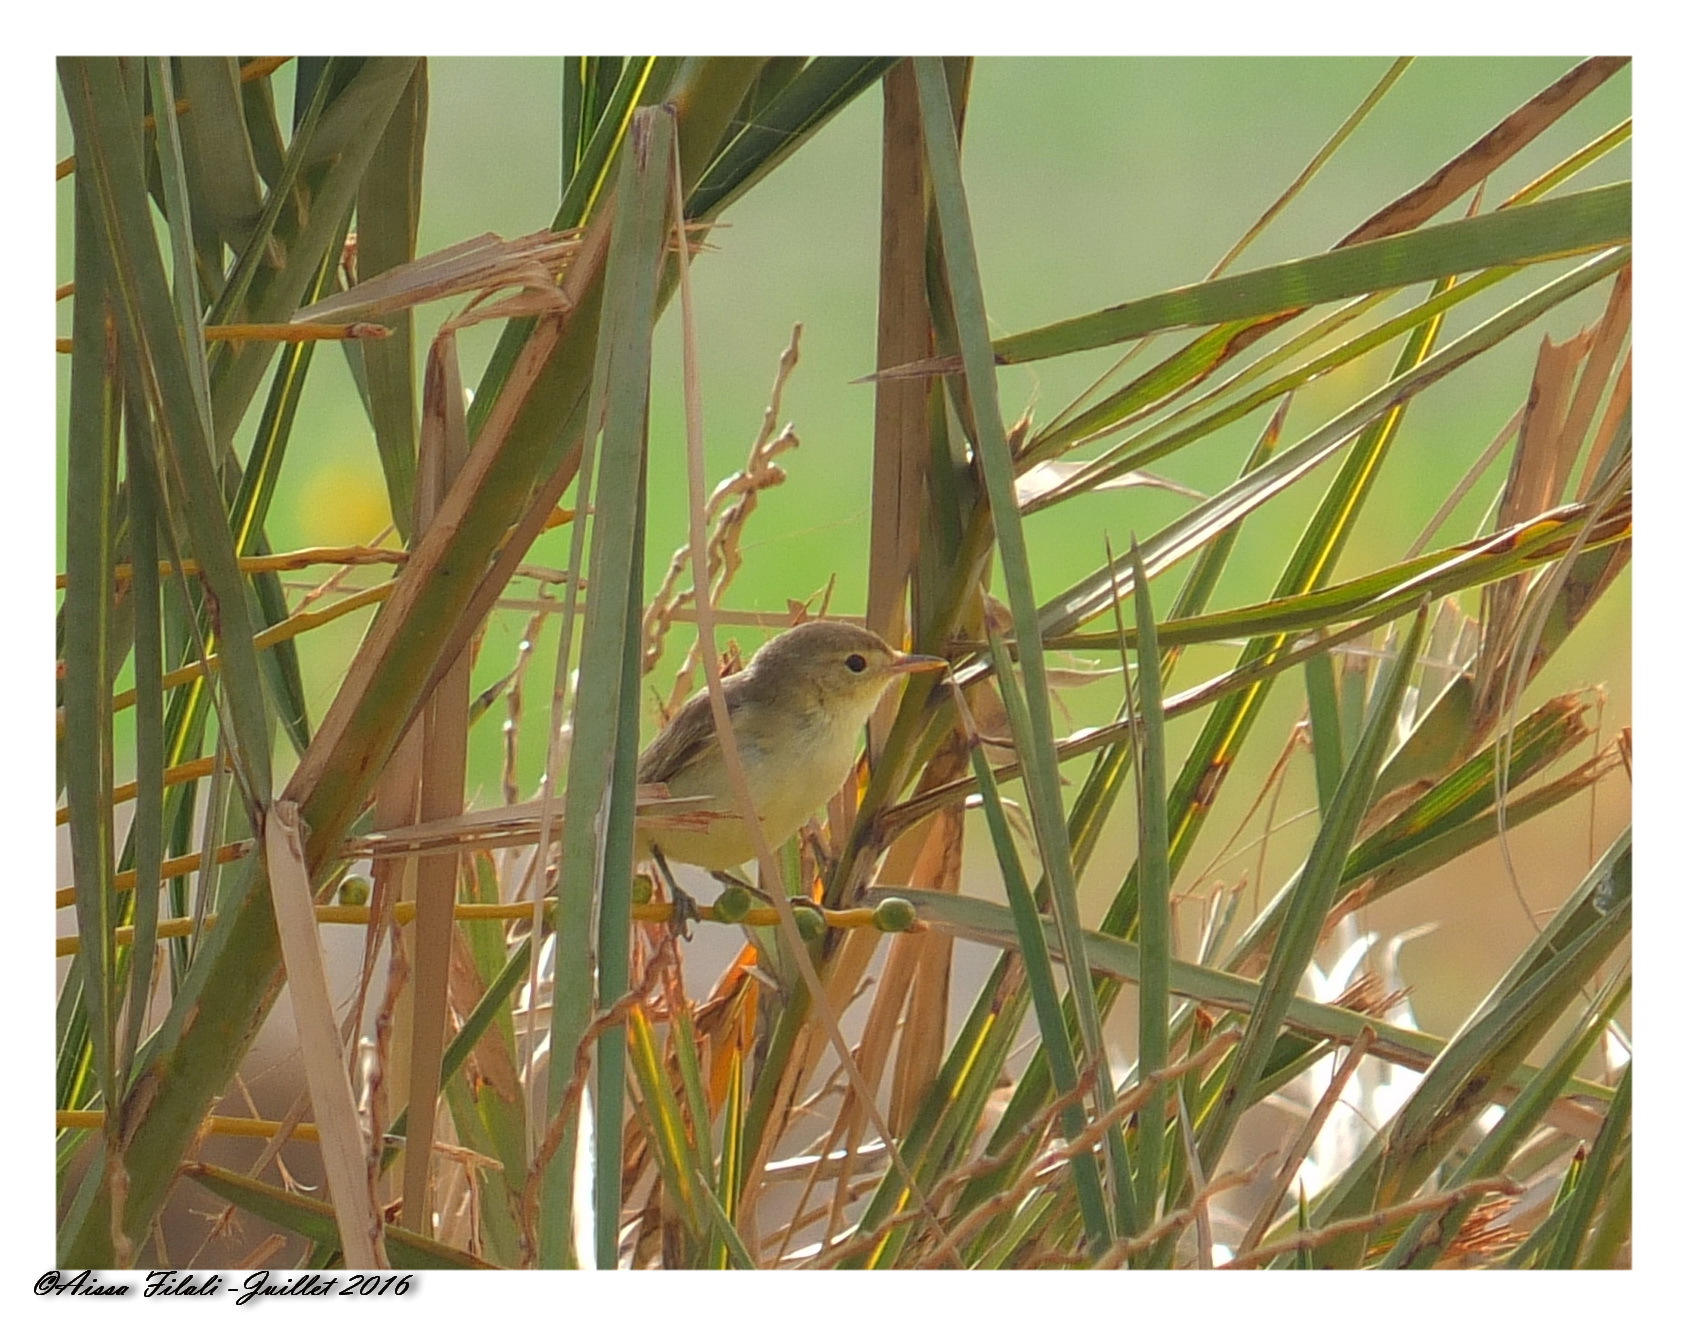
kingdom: Animalia
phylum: Chordata
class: Aves
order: Passeriformes
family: Acrocephalidae
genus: Hippolais
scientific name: Hippolais polyglotta
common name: Melodious warbler
